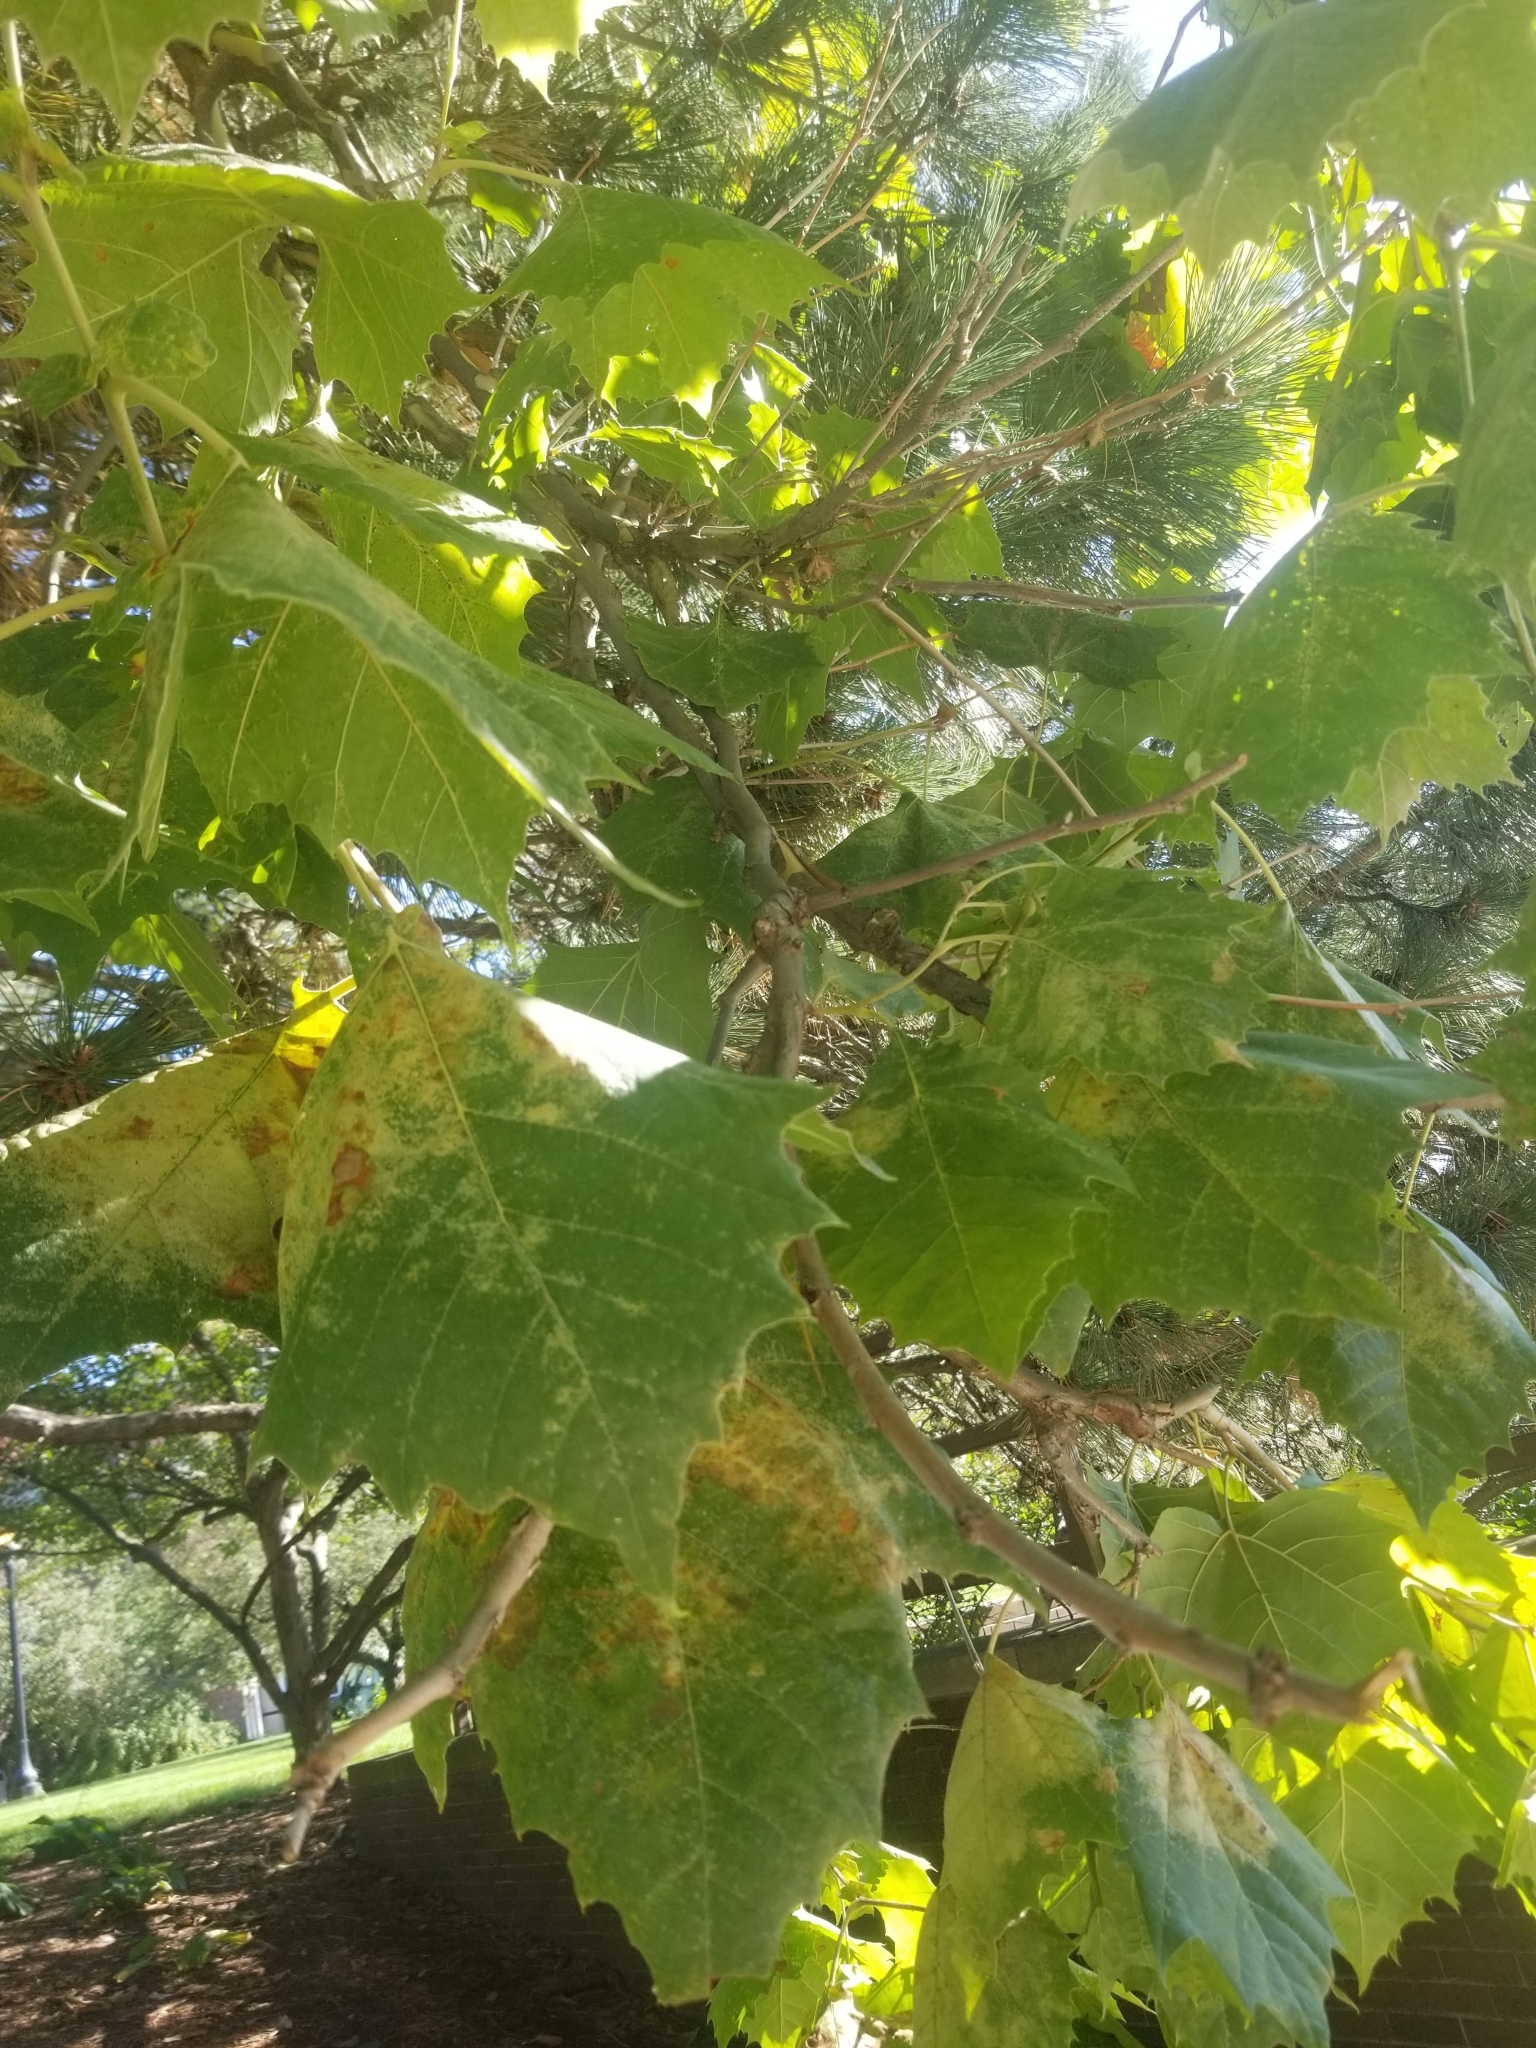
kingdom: Plantae
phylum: Tracheophyta
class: Magnoliopsida
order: Proteales
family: Platanaceae
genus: Platanus
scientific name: Platanus occidentalis
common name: American sycamore
